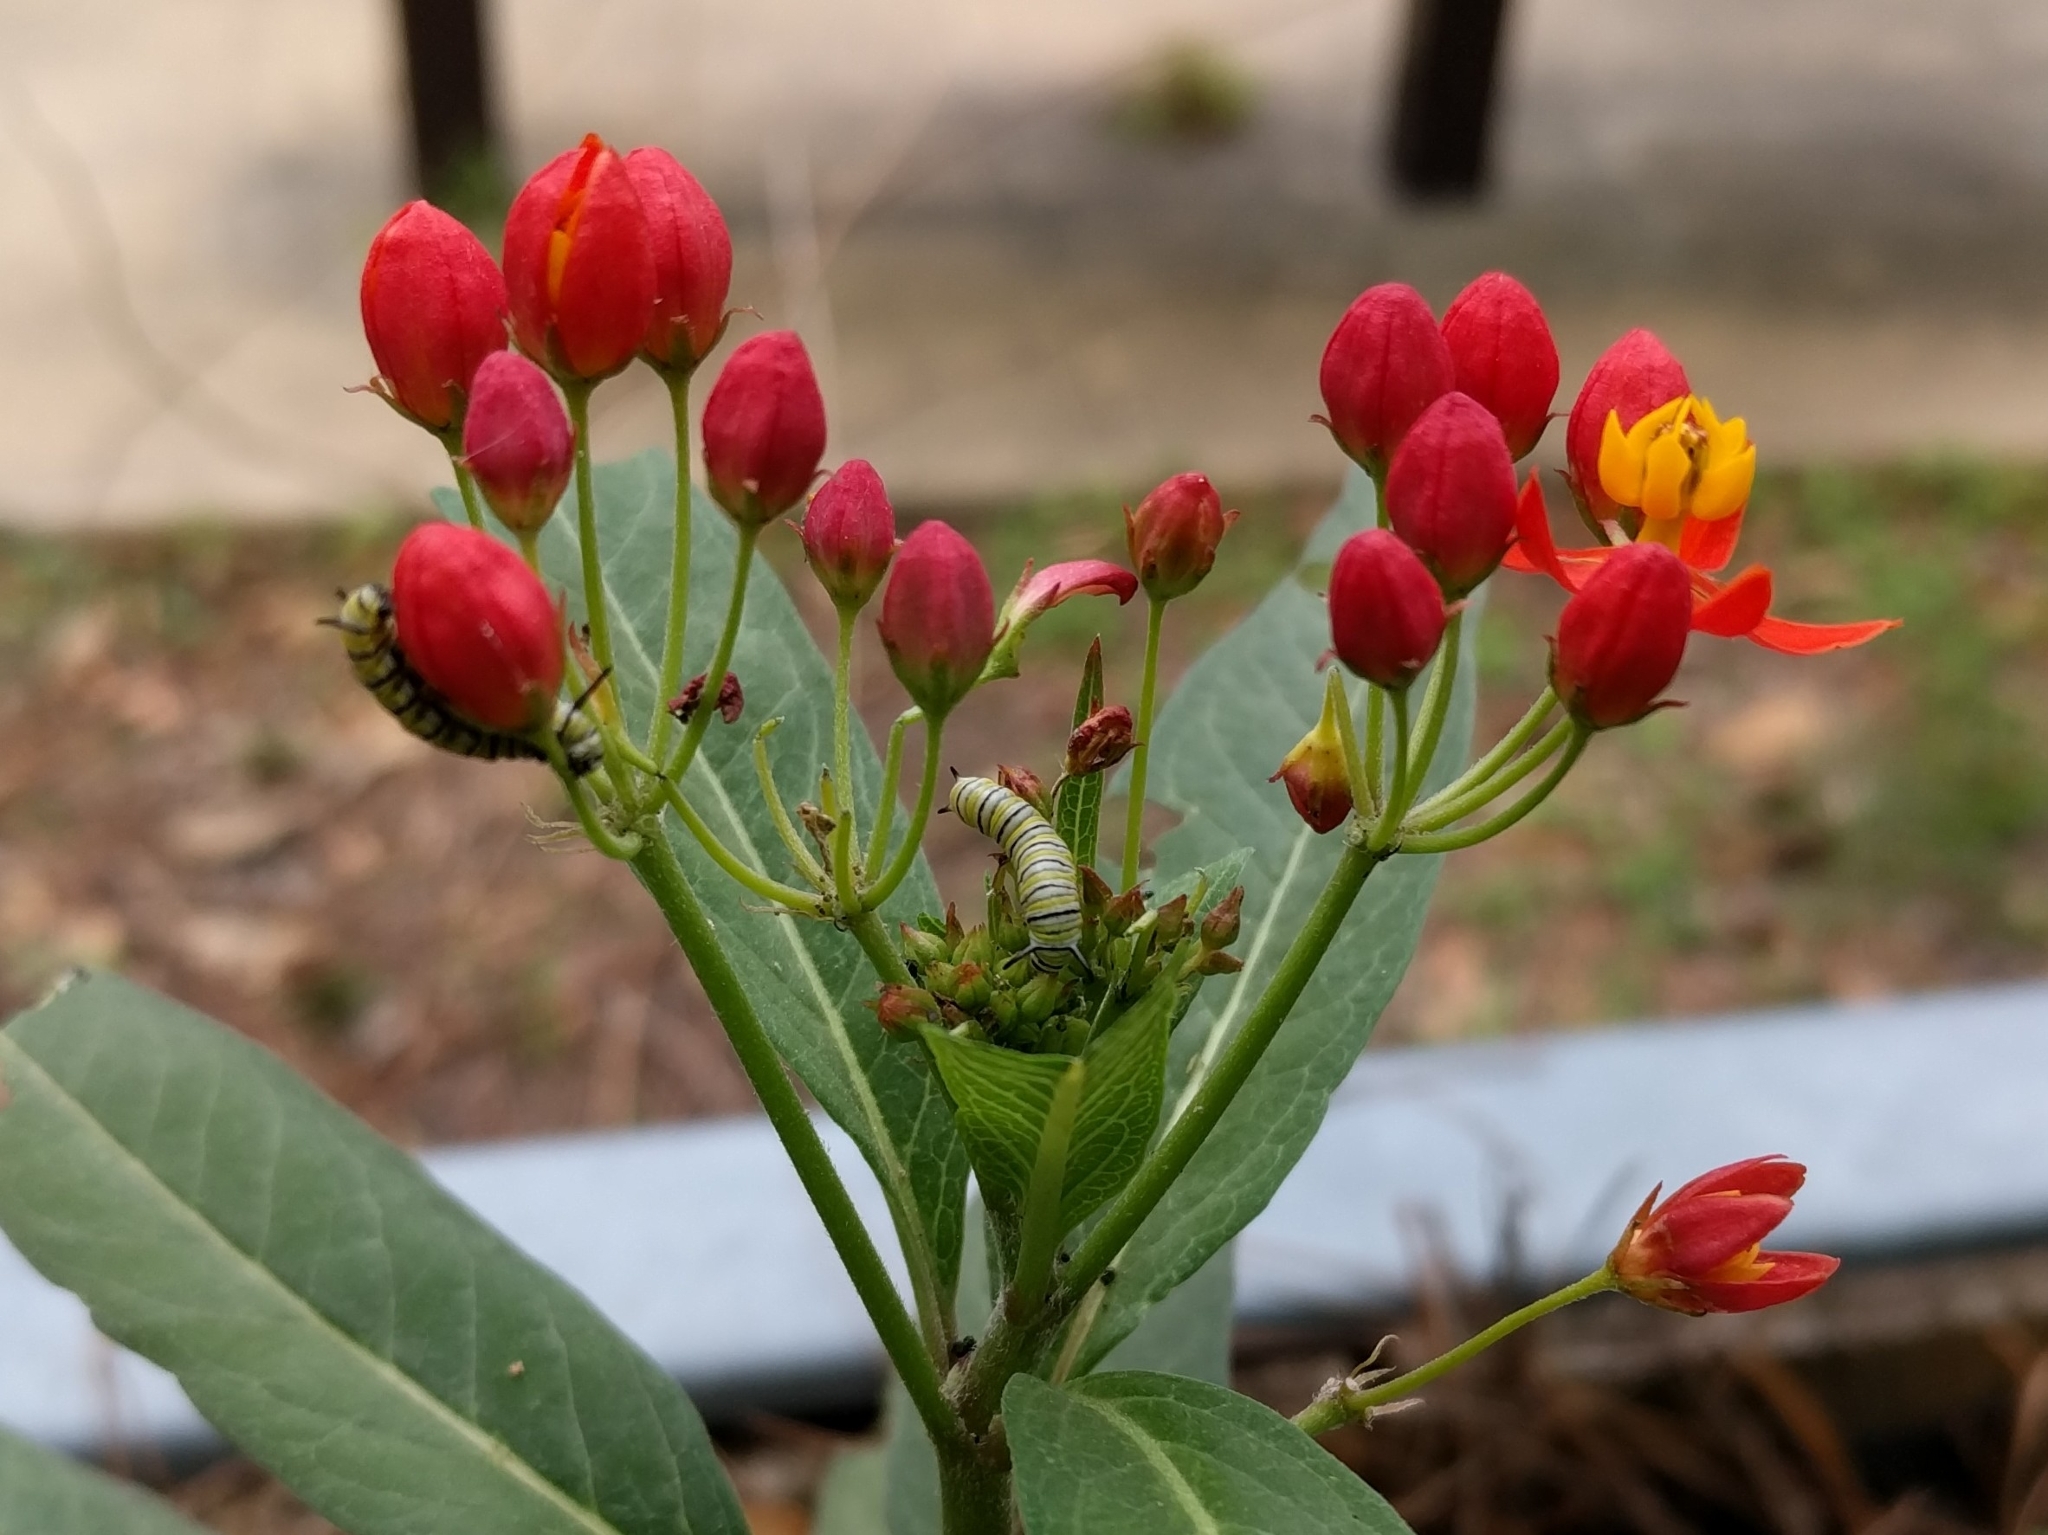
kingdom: Animalia
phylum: Arthropoda
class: Insecta
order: Lepidoptera
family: Nymphalidae
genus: Danaus
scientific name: Danaus plexippus
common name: Monarch
